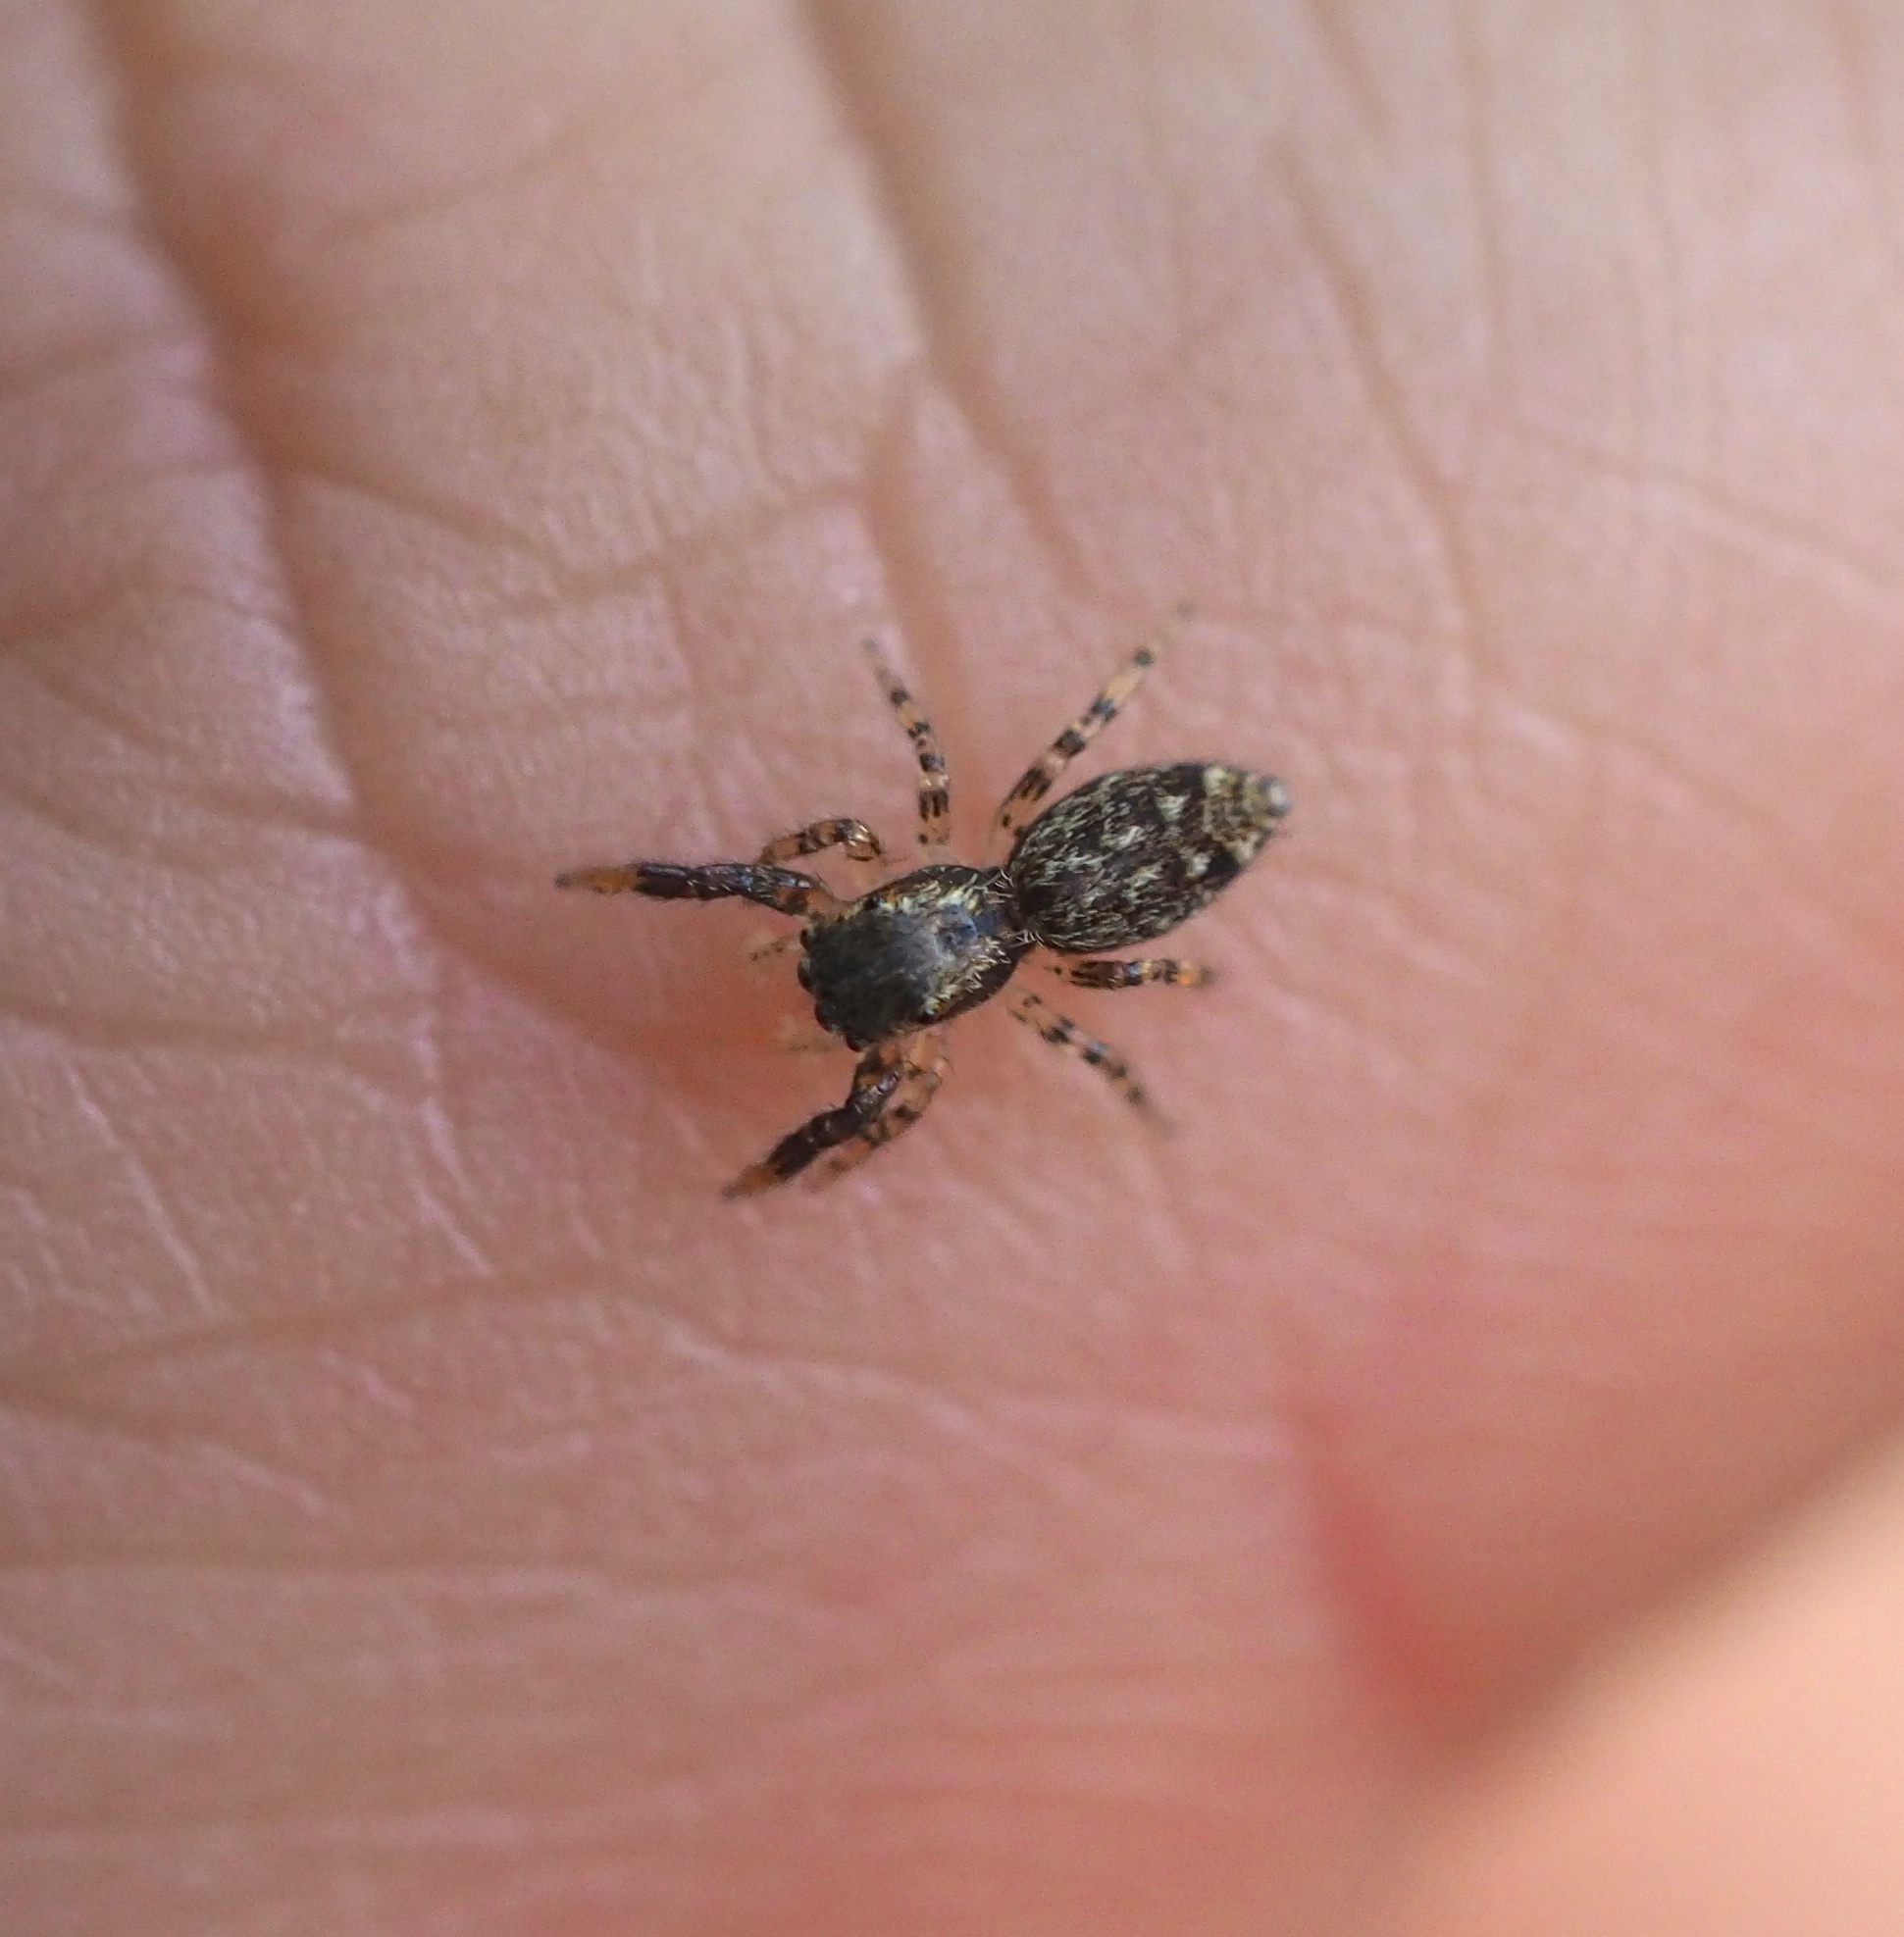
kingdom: Animalia
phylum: Arthropoda
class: Arachnida
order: Araneae
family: Salticidae
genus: Marpissa
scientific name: Marpissa muscosa
